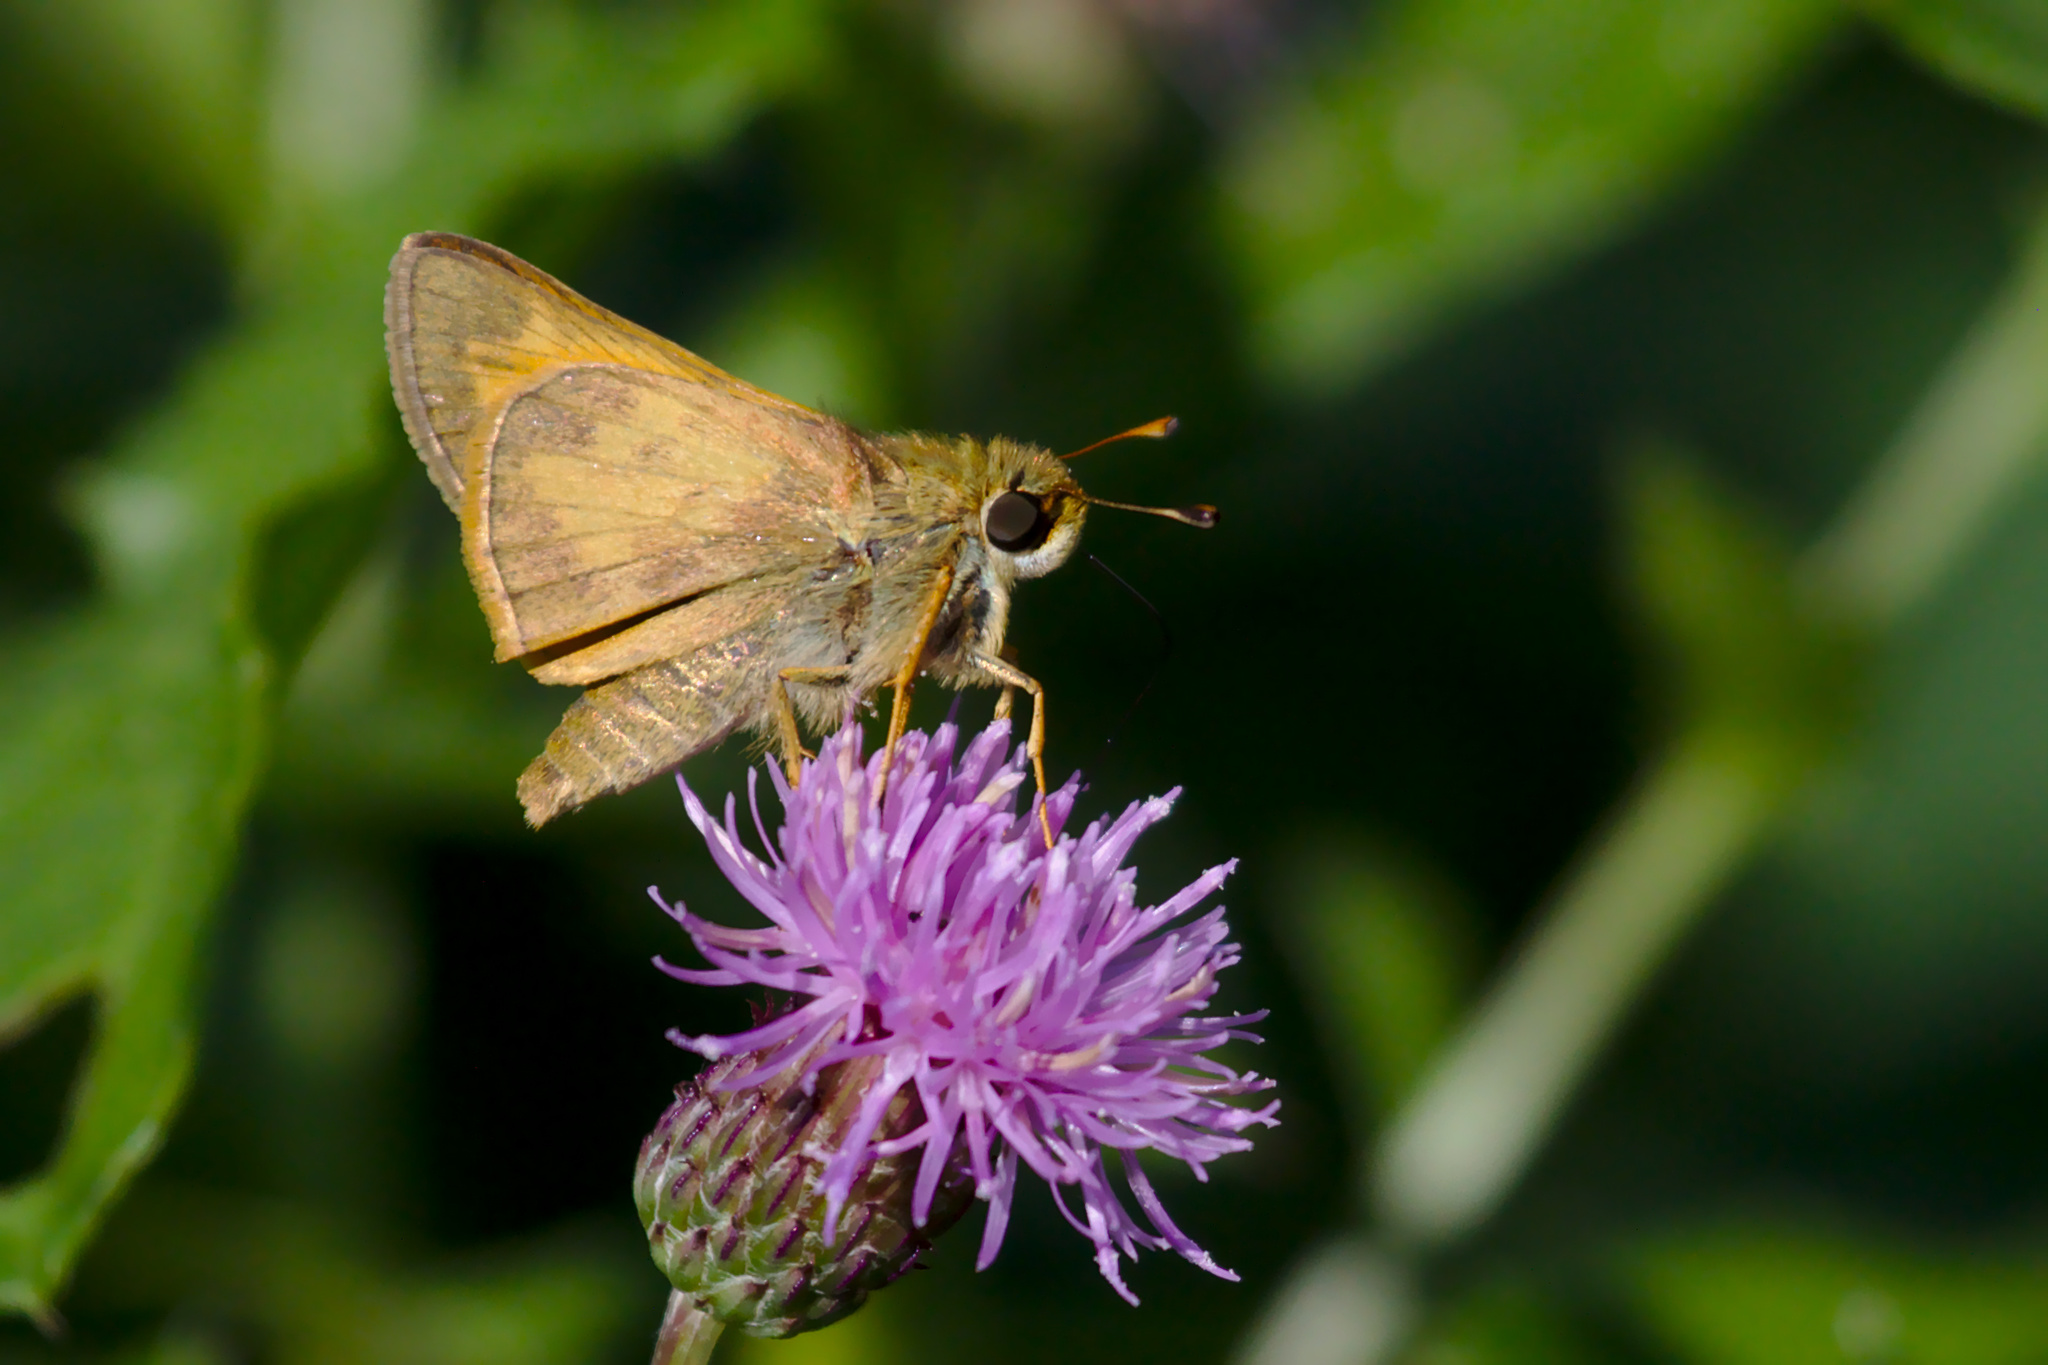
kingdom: Animalia
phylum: Arthropoda
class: Insecta
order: Lepidoptera
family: Hesperiidae
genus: Atalopedes
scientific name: Atalopedes
